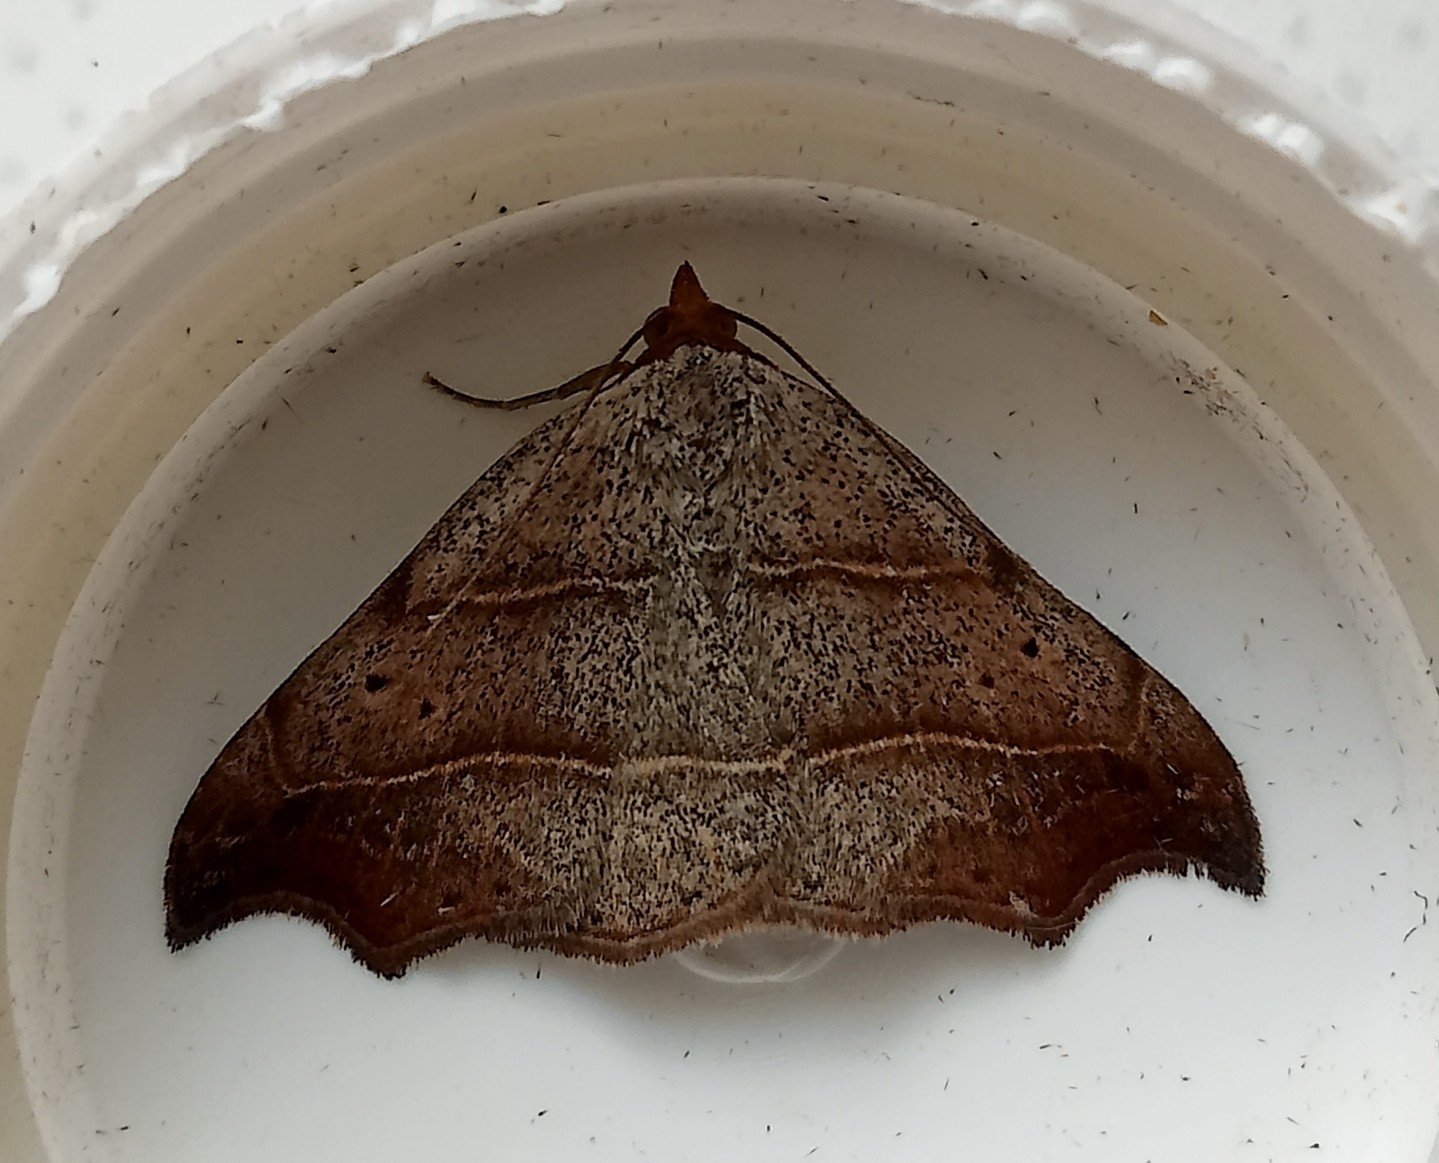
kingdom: Animalia
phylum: Arthropoda
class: Insecta
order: Lepidoptera
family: Erebidae
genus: Laspeyria
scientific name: Laspeyria flexula
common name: Beautiful hook-tip
